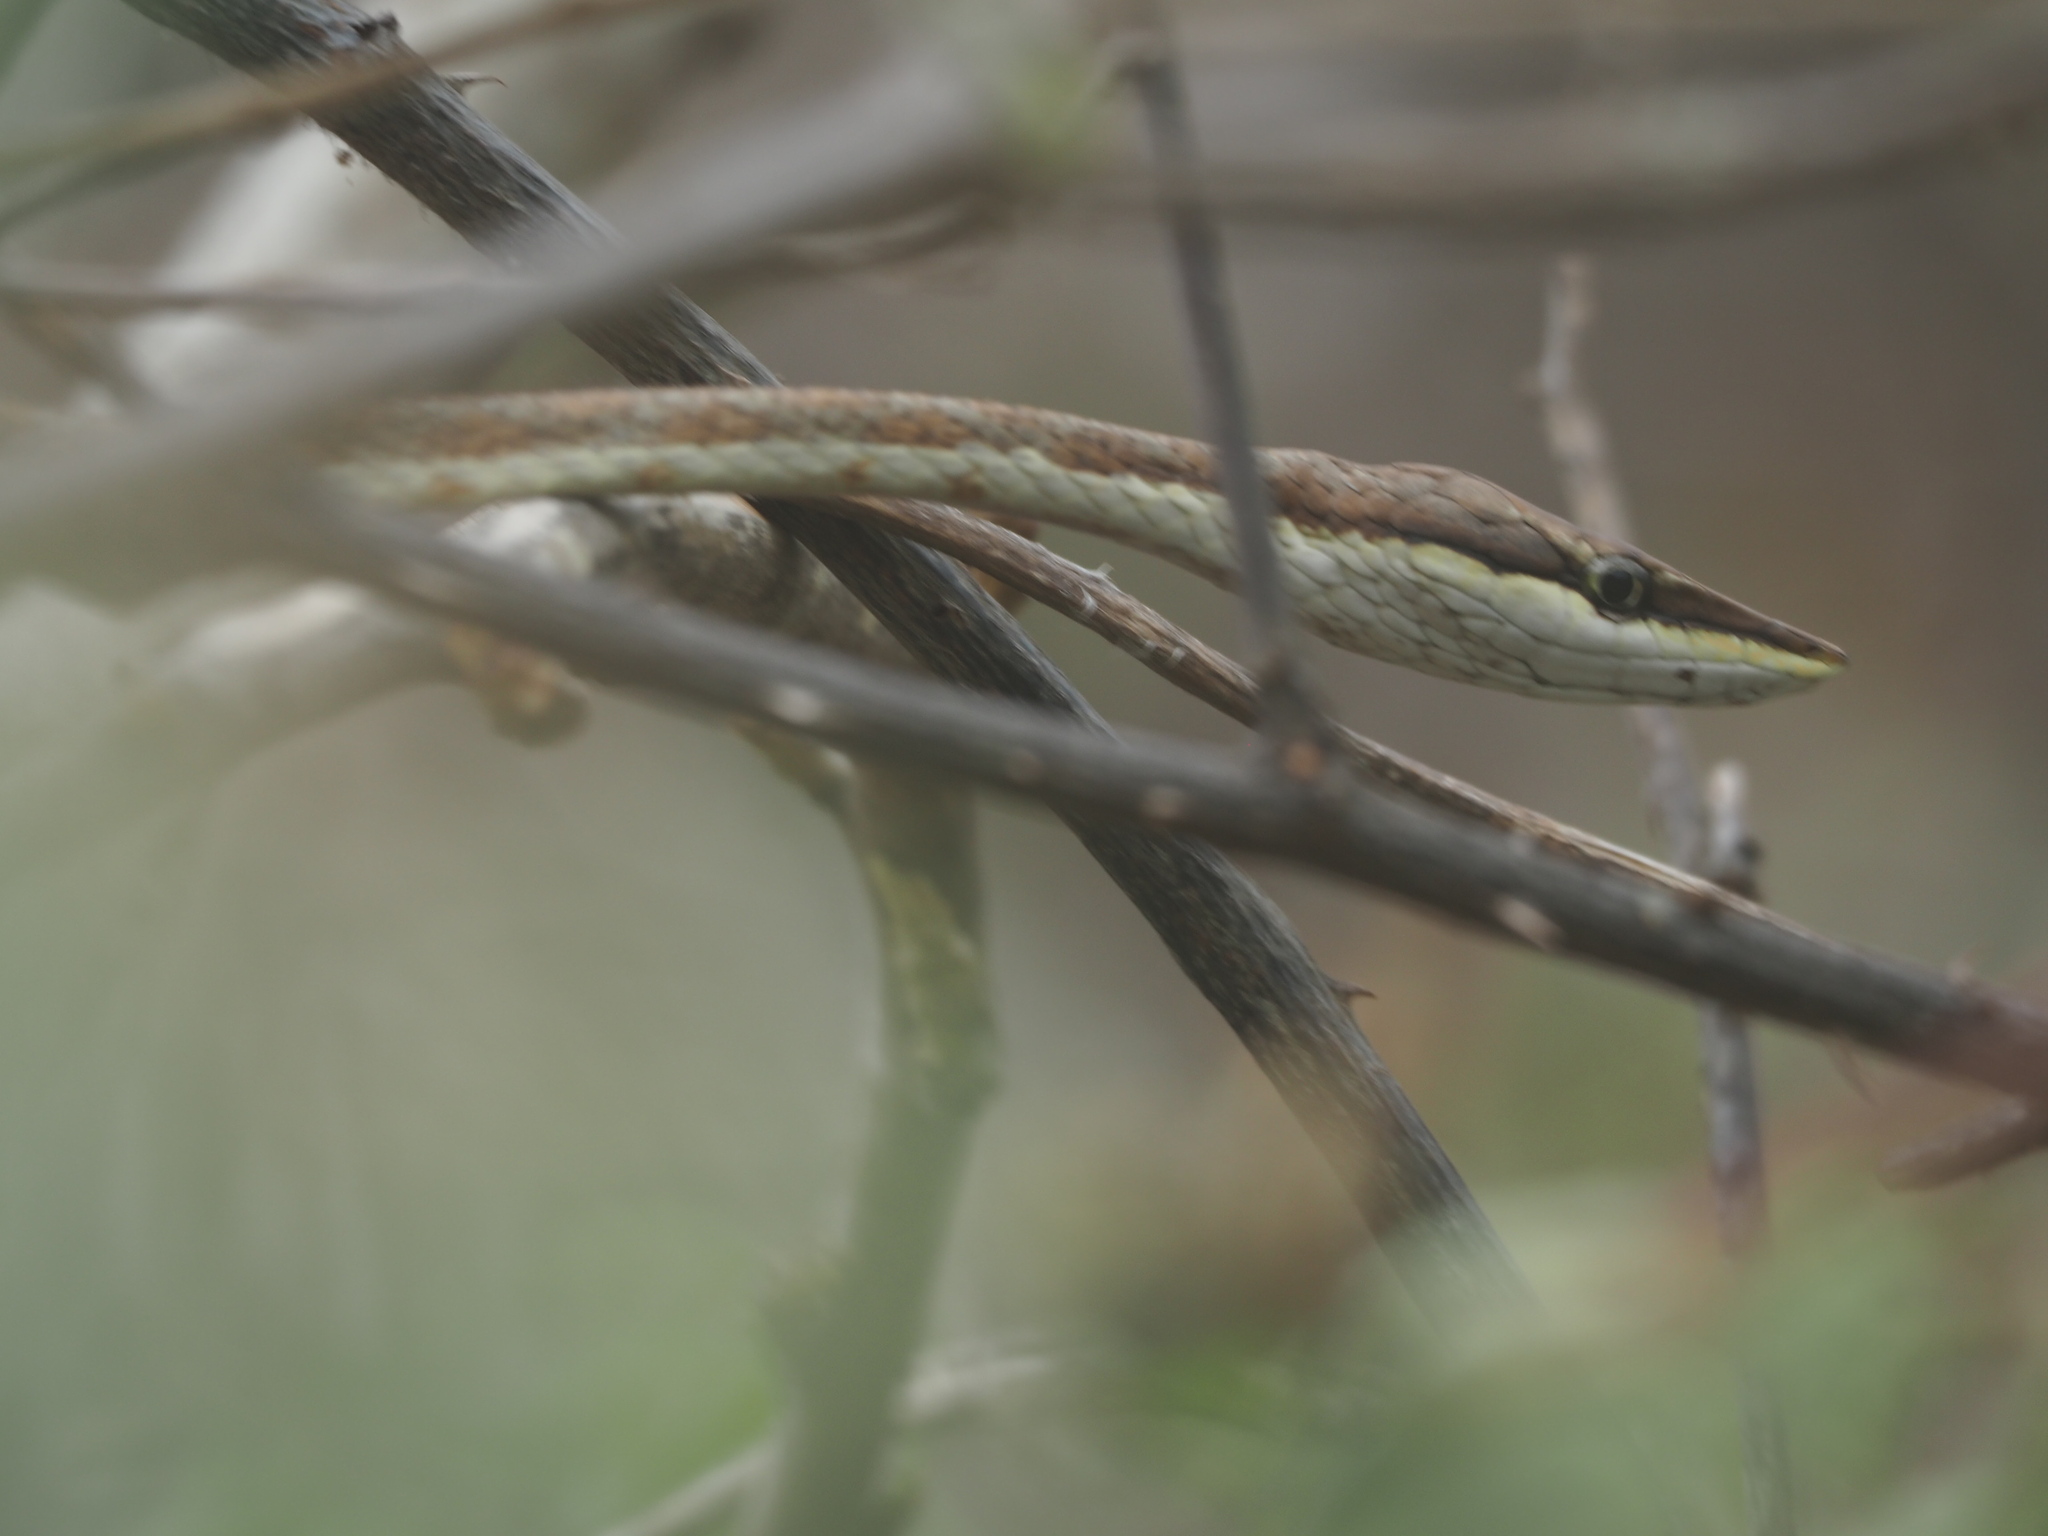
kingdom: Animalia
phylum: Chordata
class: Squamata
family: Colubridae
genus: Oxybelis
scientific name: Oxybelis transandinus
